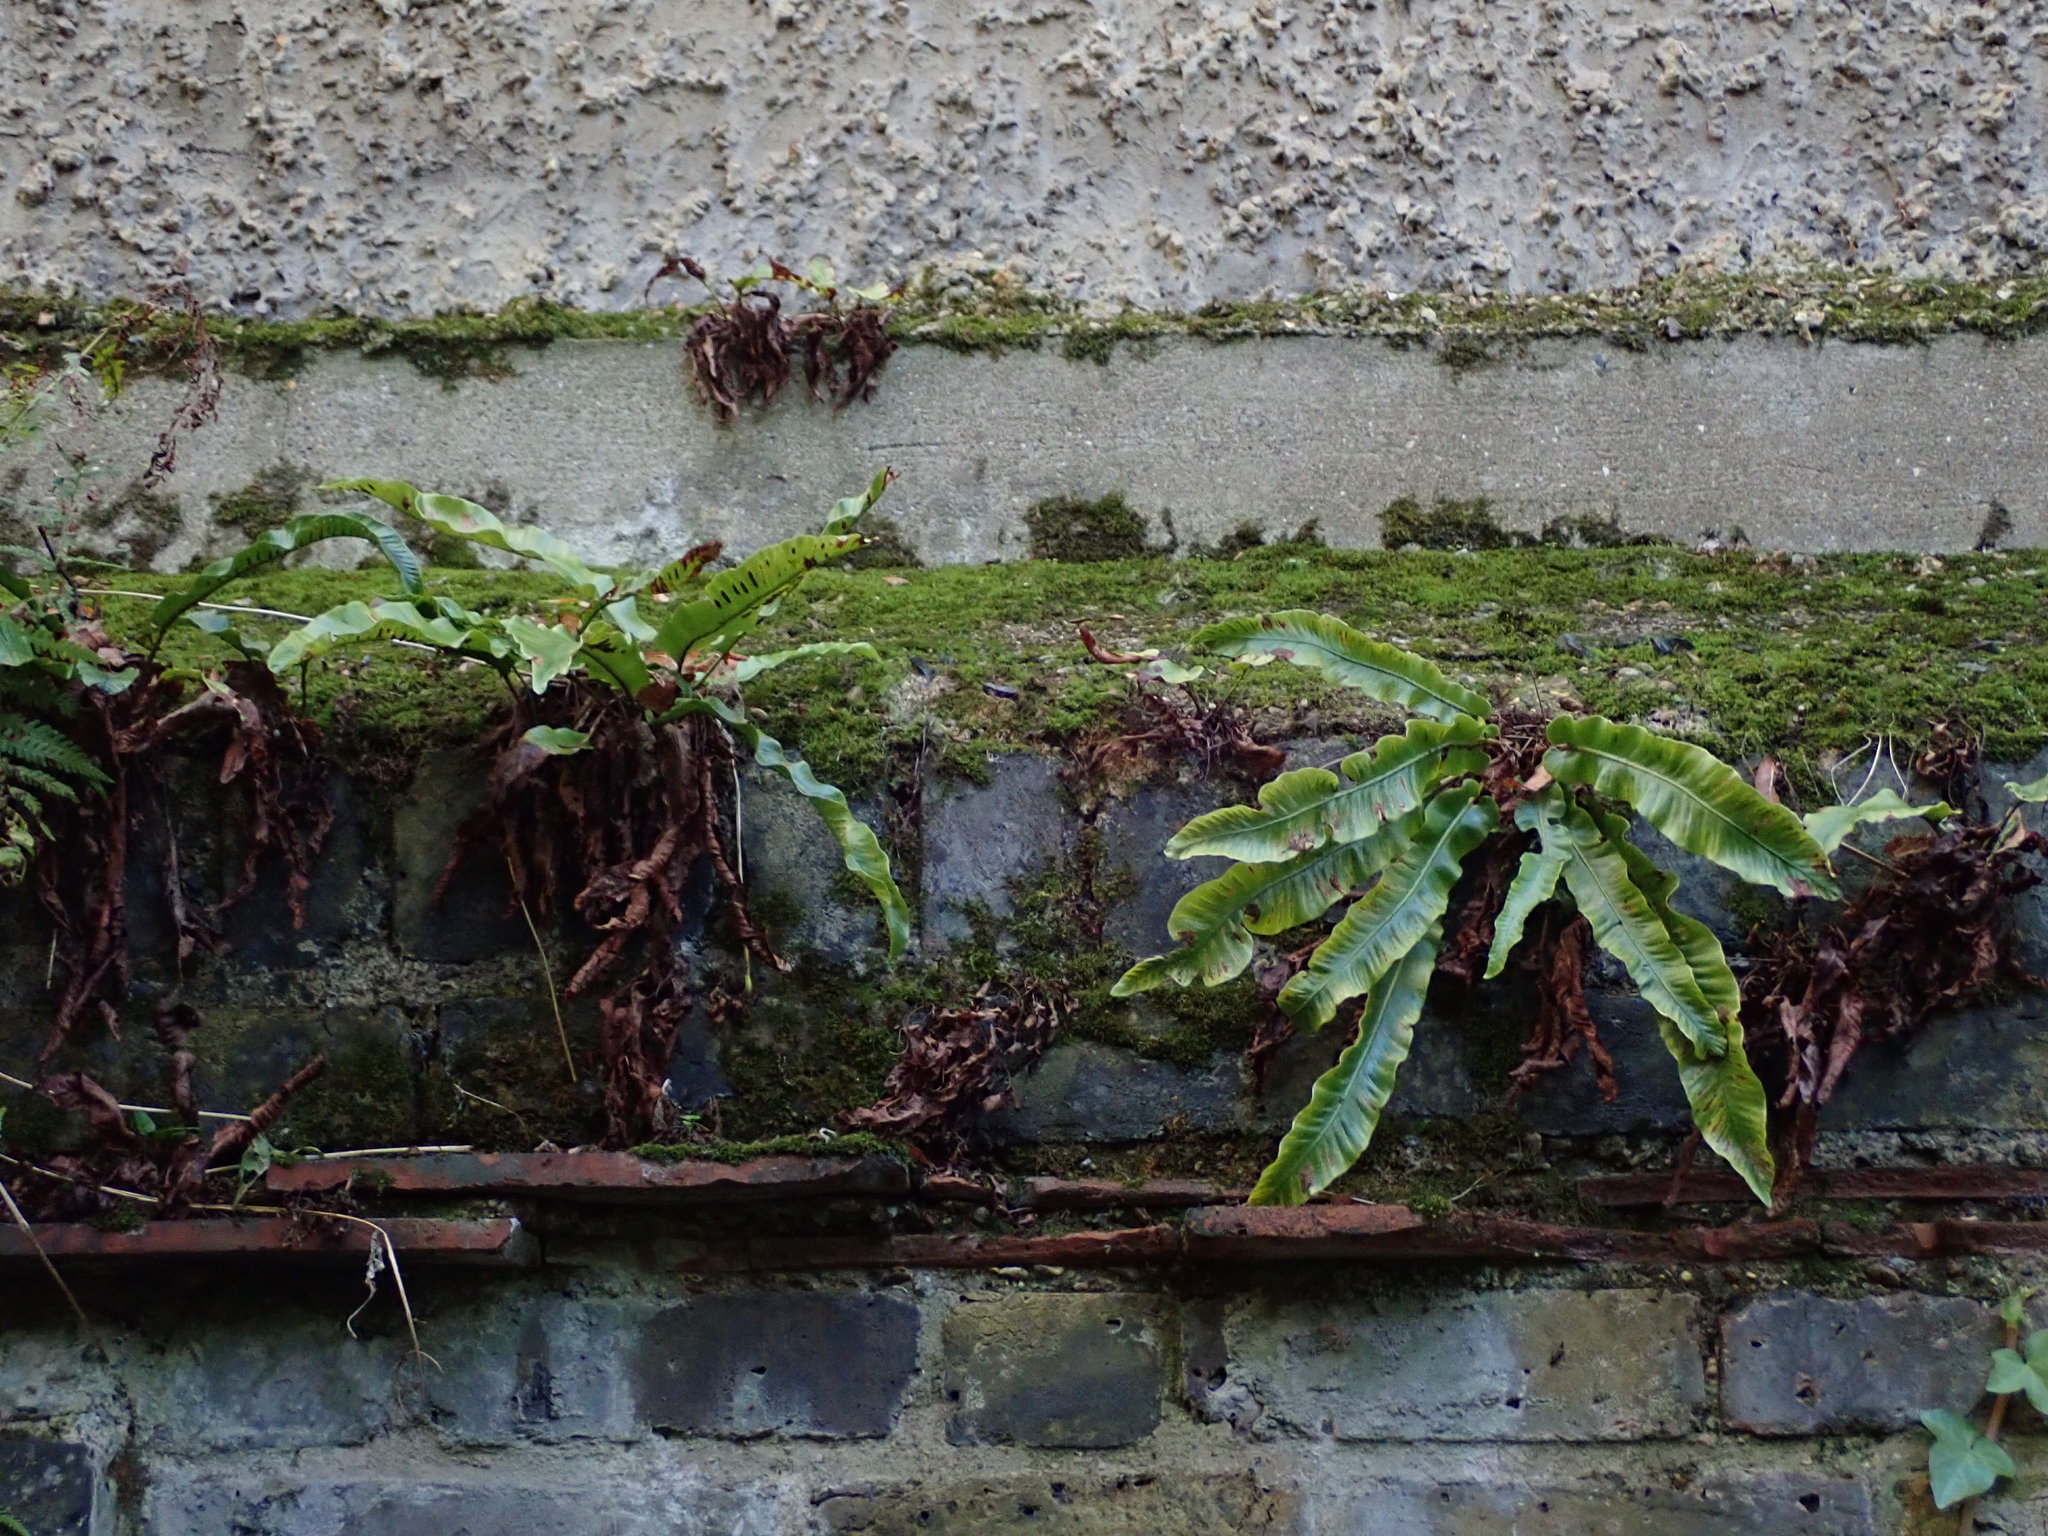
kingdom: Plantae
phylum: Tracheophyta
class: Polypodiopsida
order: Polypodiales
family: Aspleniaceae
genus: Asplenium
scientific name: Asplenium scolopendrium
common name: Hart's-tongue fern
